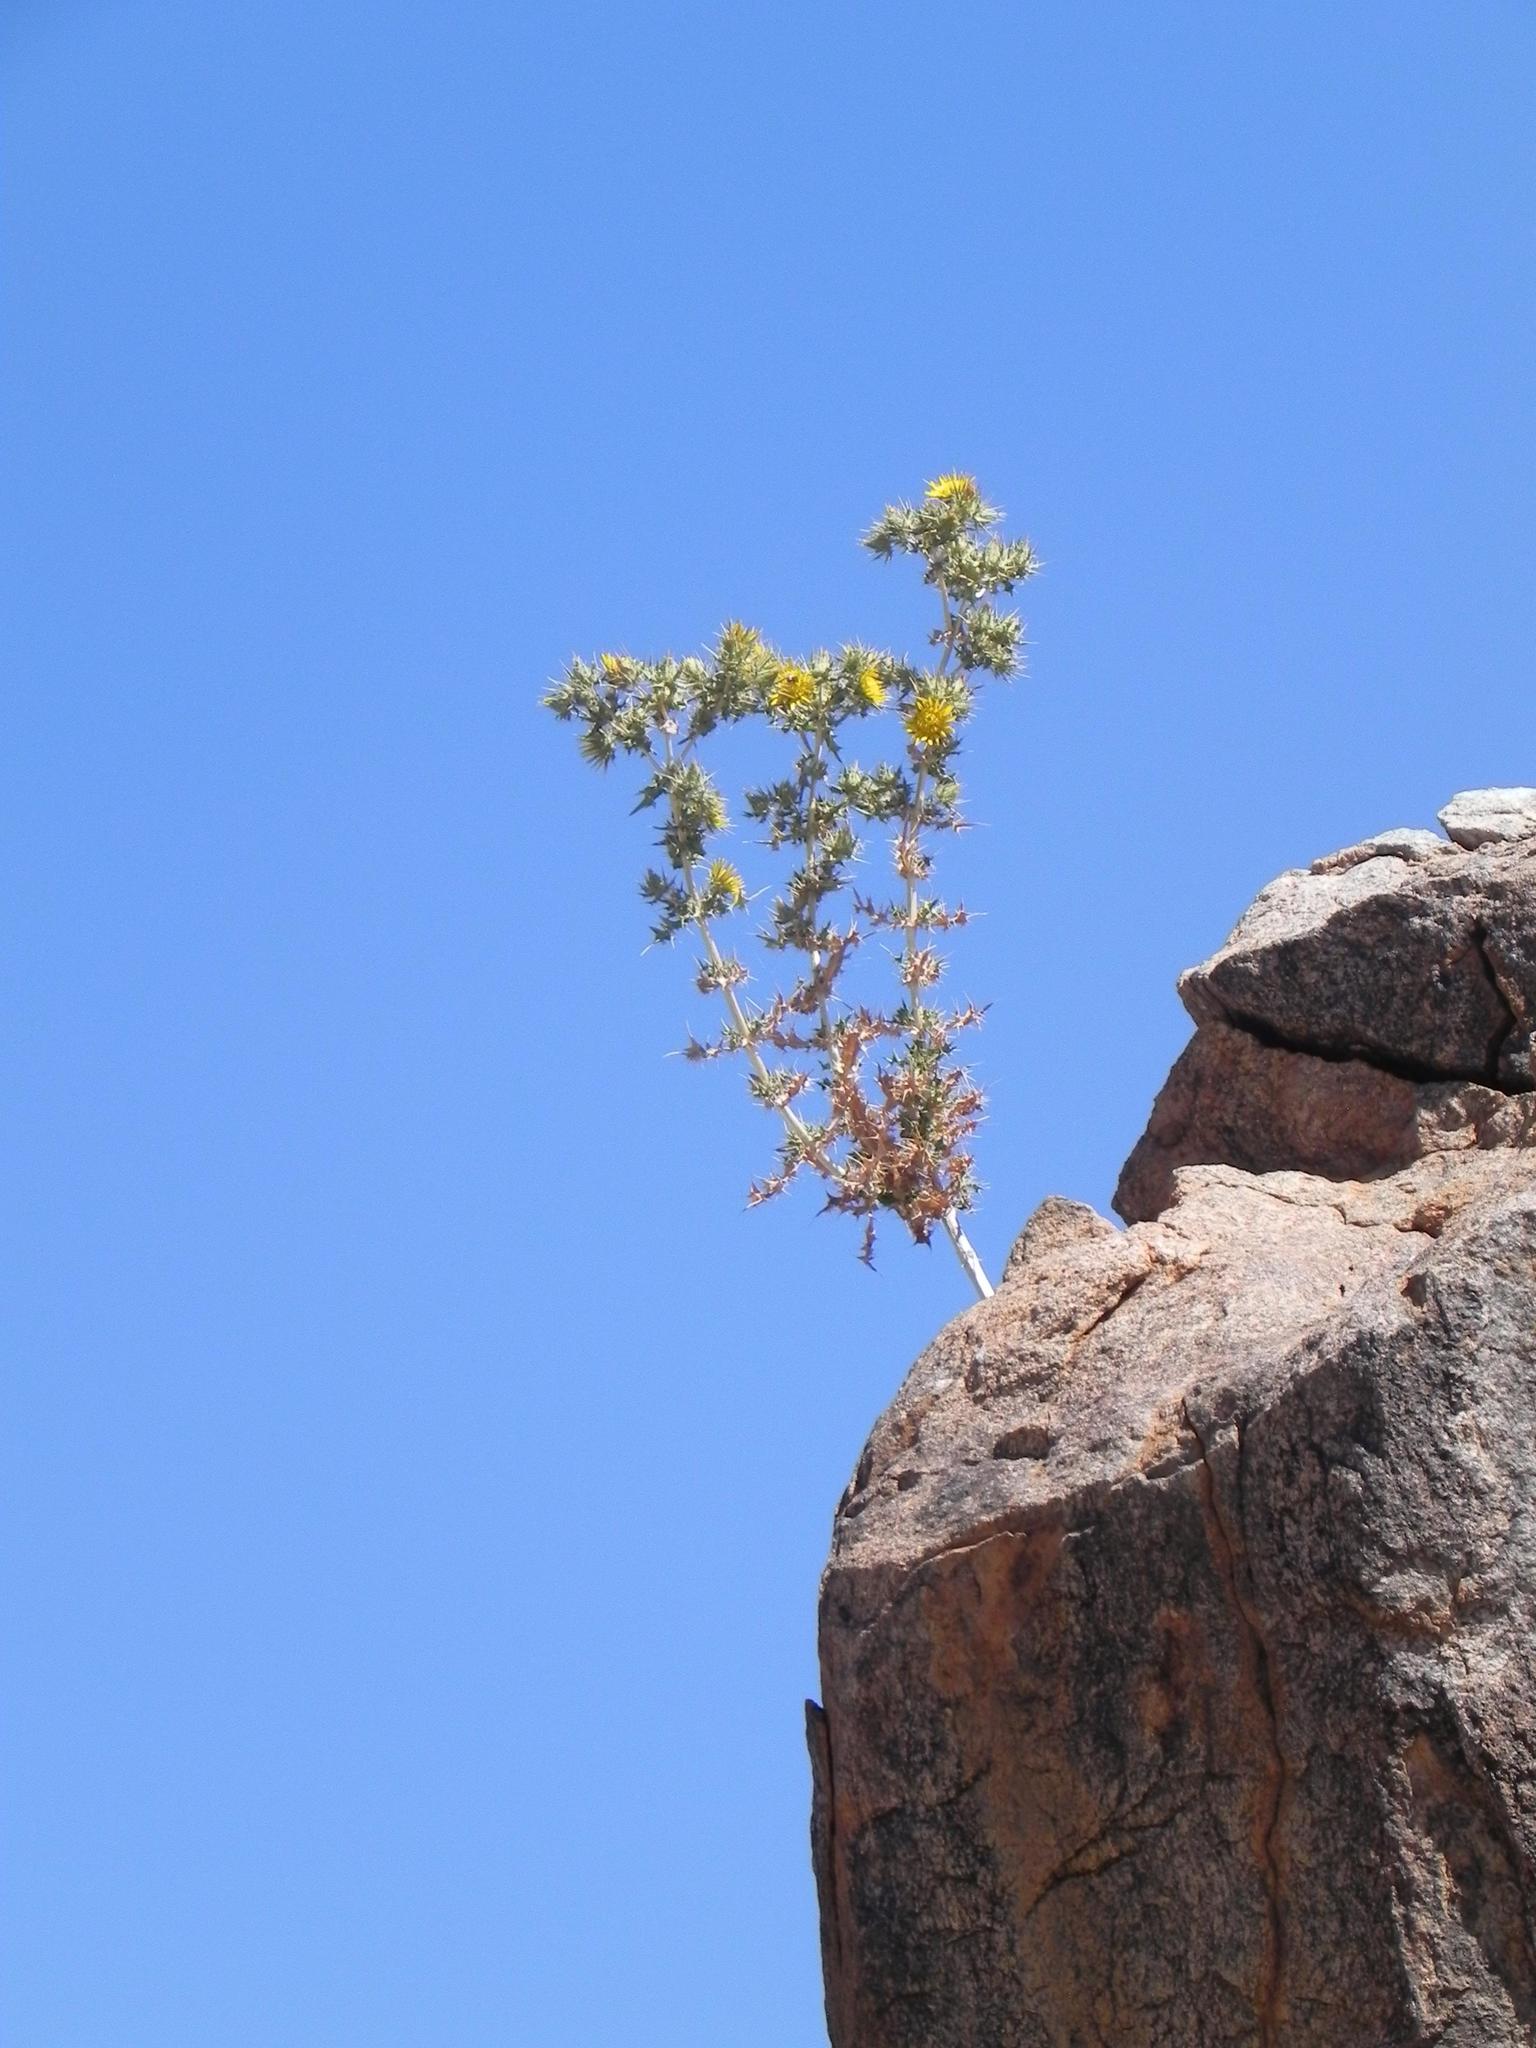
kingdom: Plantae
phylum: Tracheophyta
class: Magnoliopsida
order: Asterales
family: Asteraceae
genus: Berkheya
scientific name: Berkheya spinosissima
